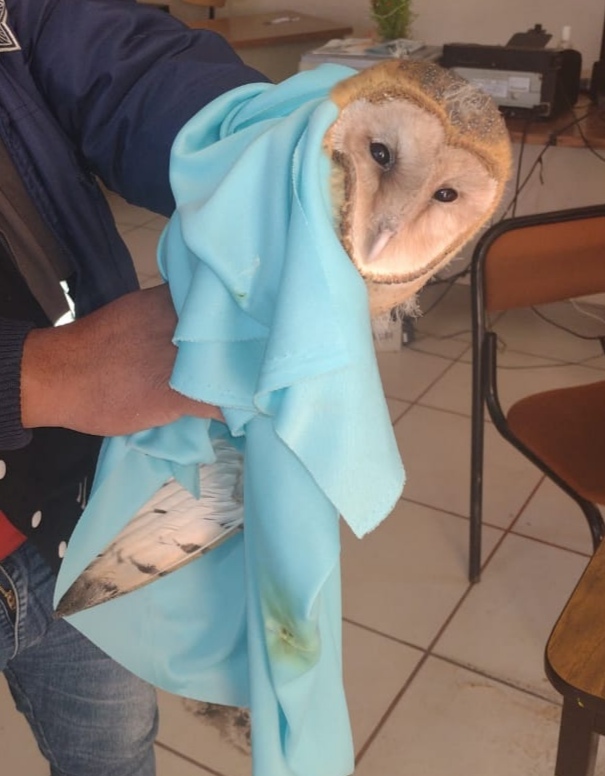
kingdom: Animalia
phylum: Chordata
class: Aves
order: Strigiformes
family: Tytonidae
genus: Tyto
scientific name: Tyto alba
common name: Barn owl
